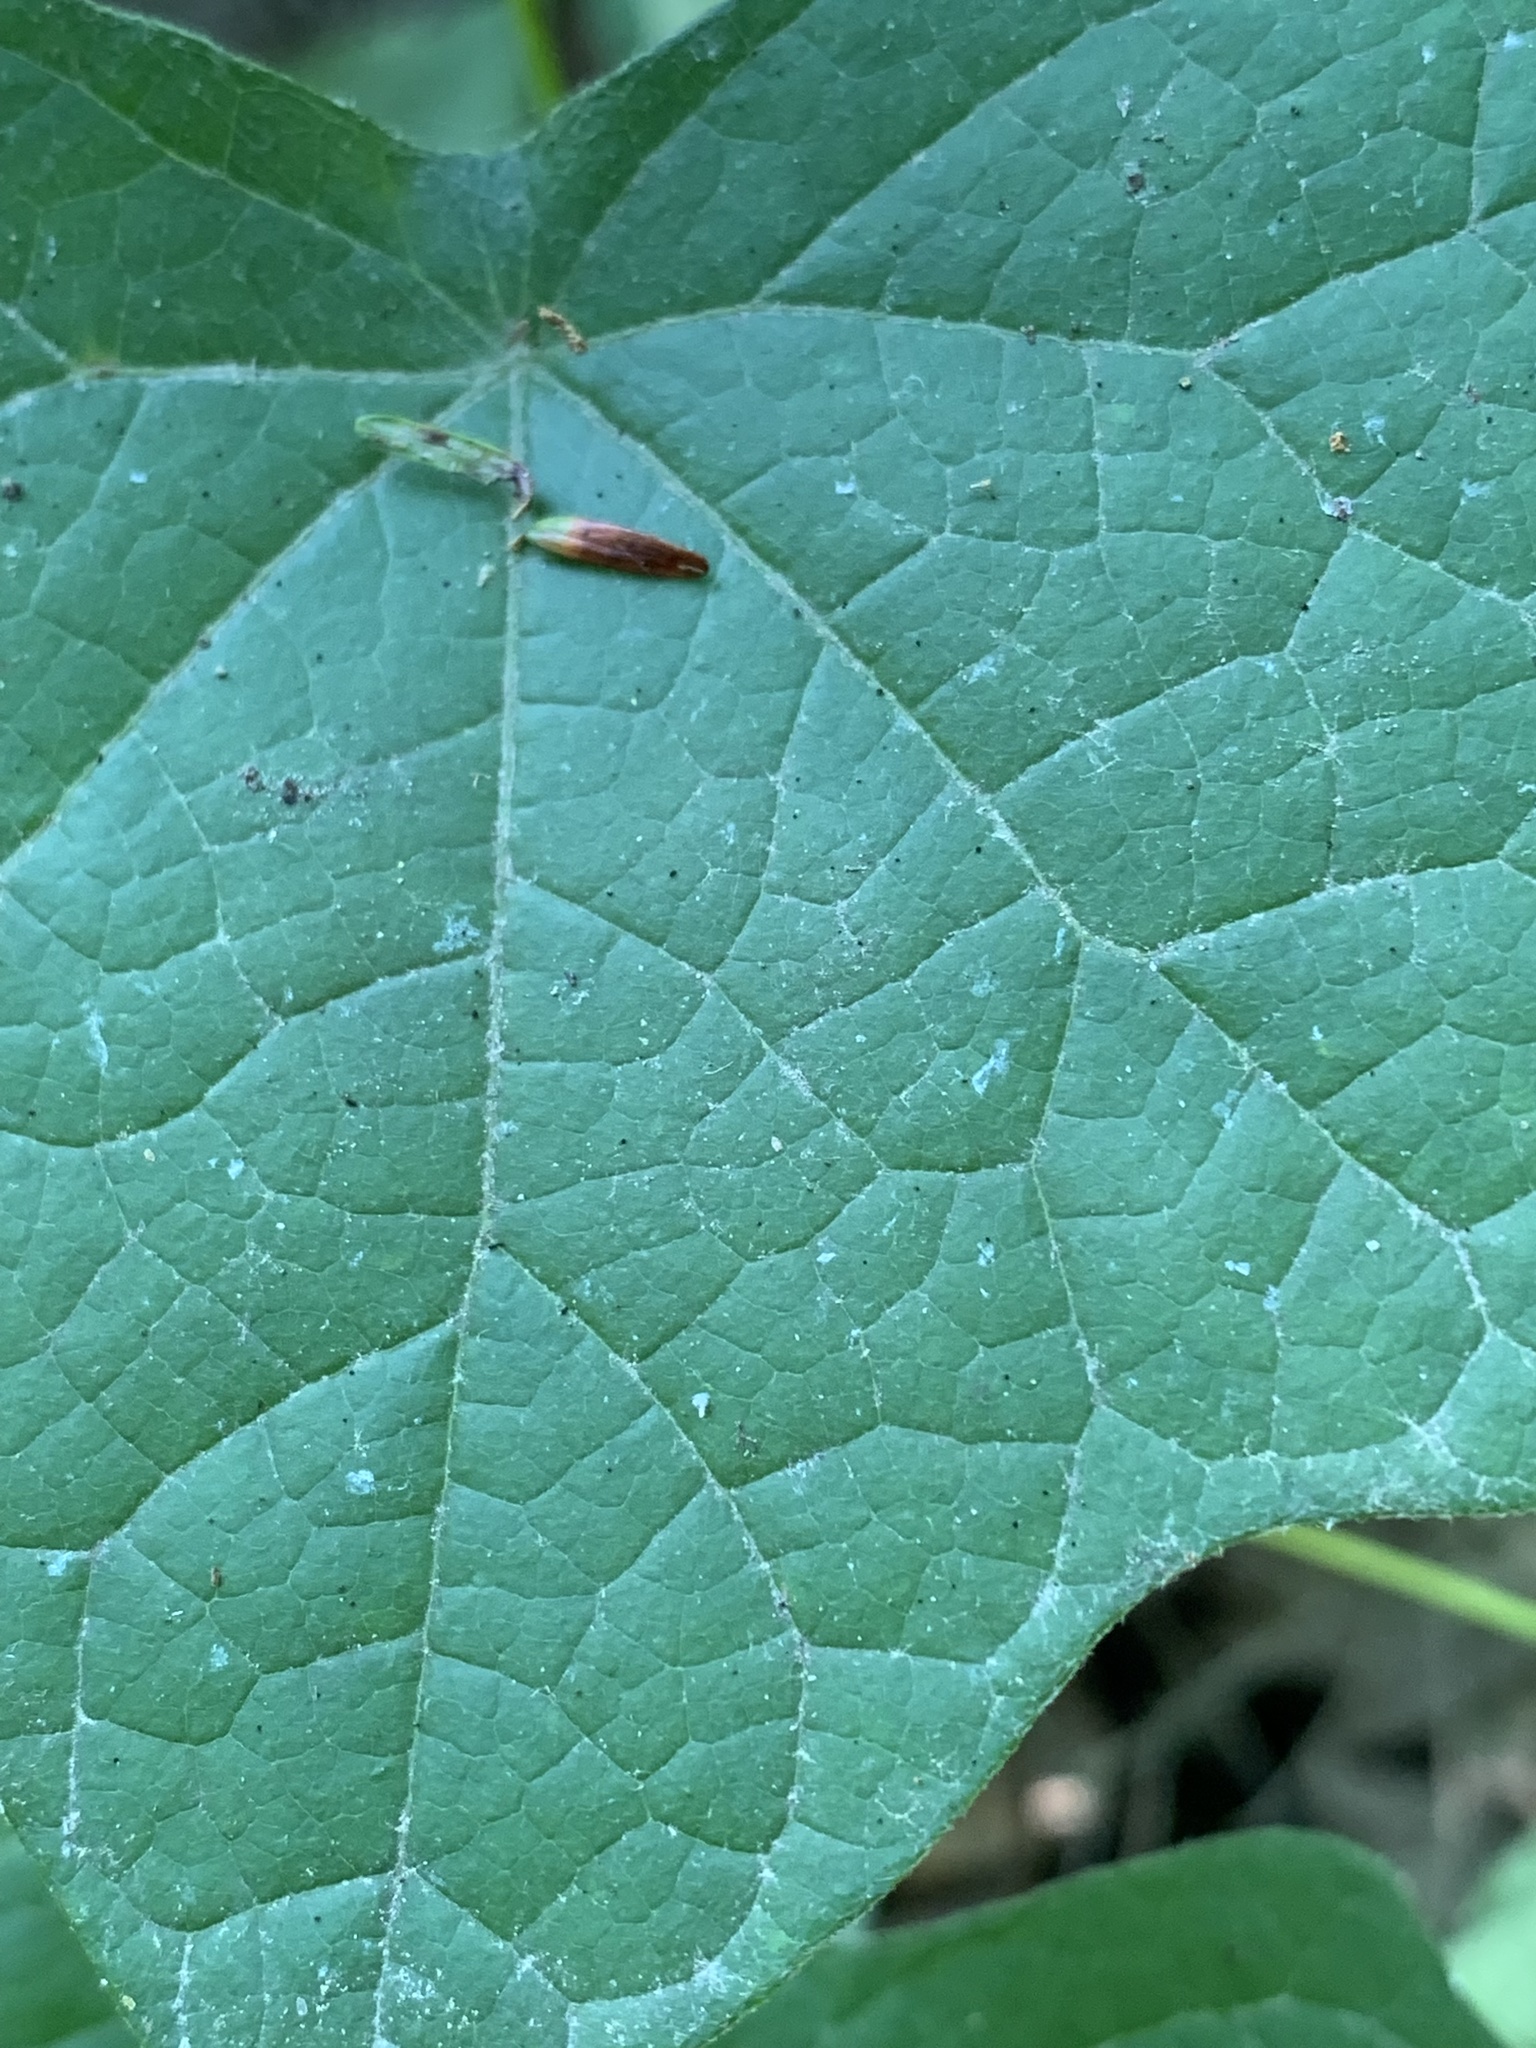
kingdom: Plantae
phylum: Tracheophyta
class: Magnoliopsida
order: Ranunculales
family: Menispermaceae
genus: Menispermum
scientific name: Menispermum canadense
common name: Moonseed
